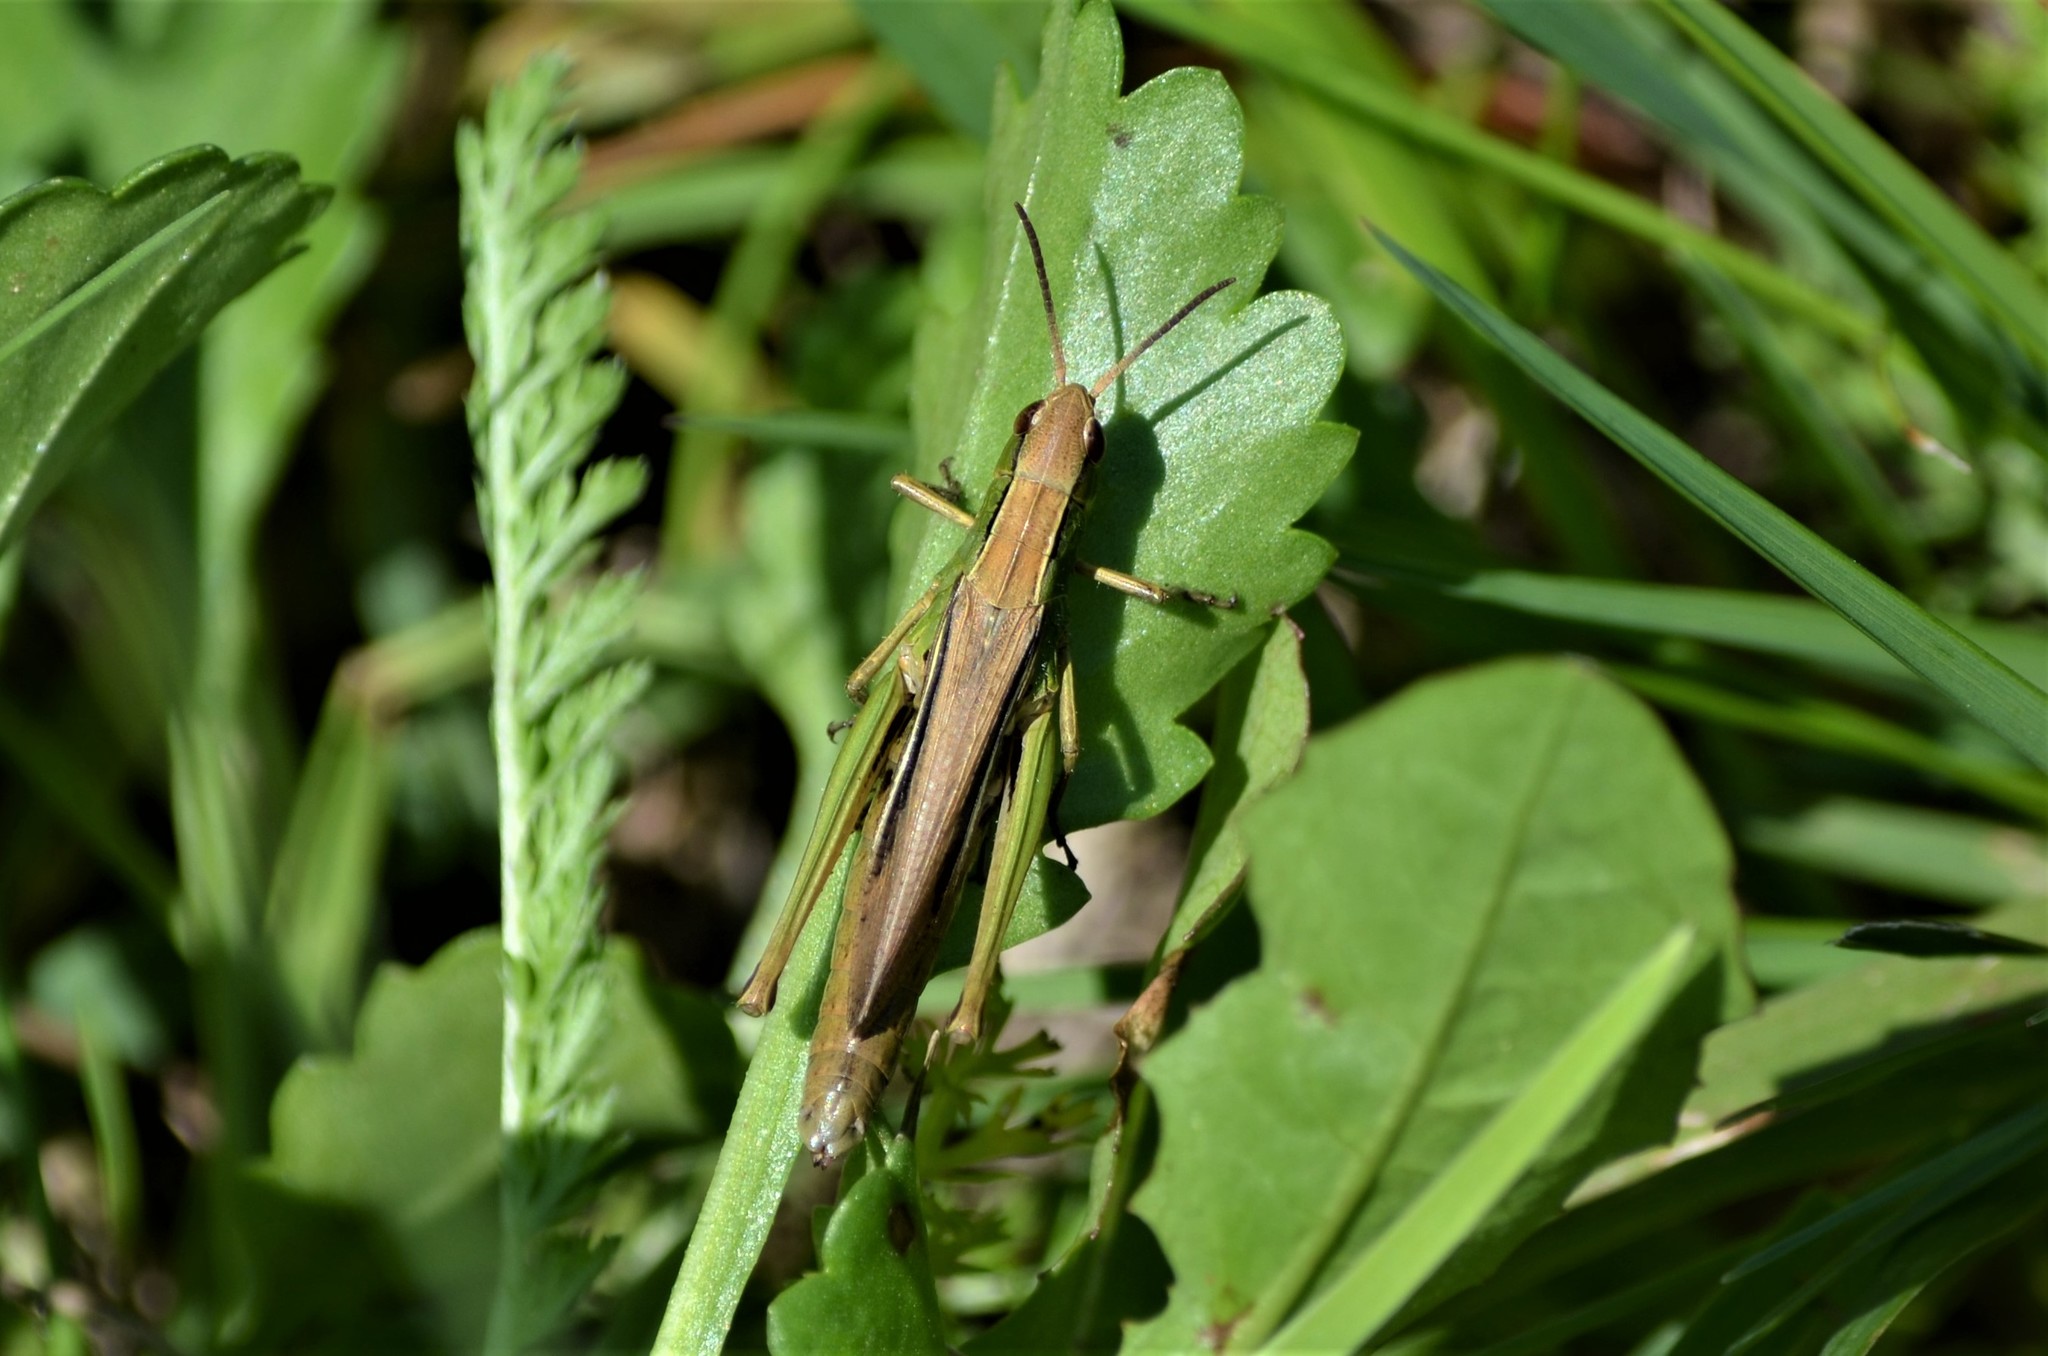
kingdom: Animalia
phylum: Arthropoda
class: Insecta
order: Orthoptera
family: Acrididae
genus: Chorthippus
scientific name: Chorthippus albomarginatus
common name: Lesser marsh grasshopper
